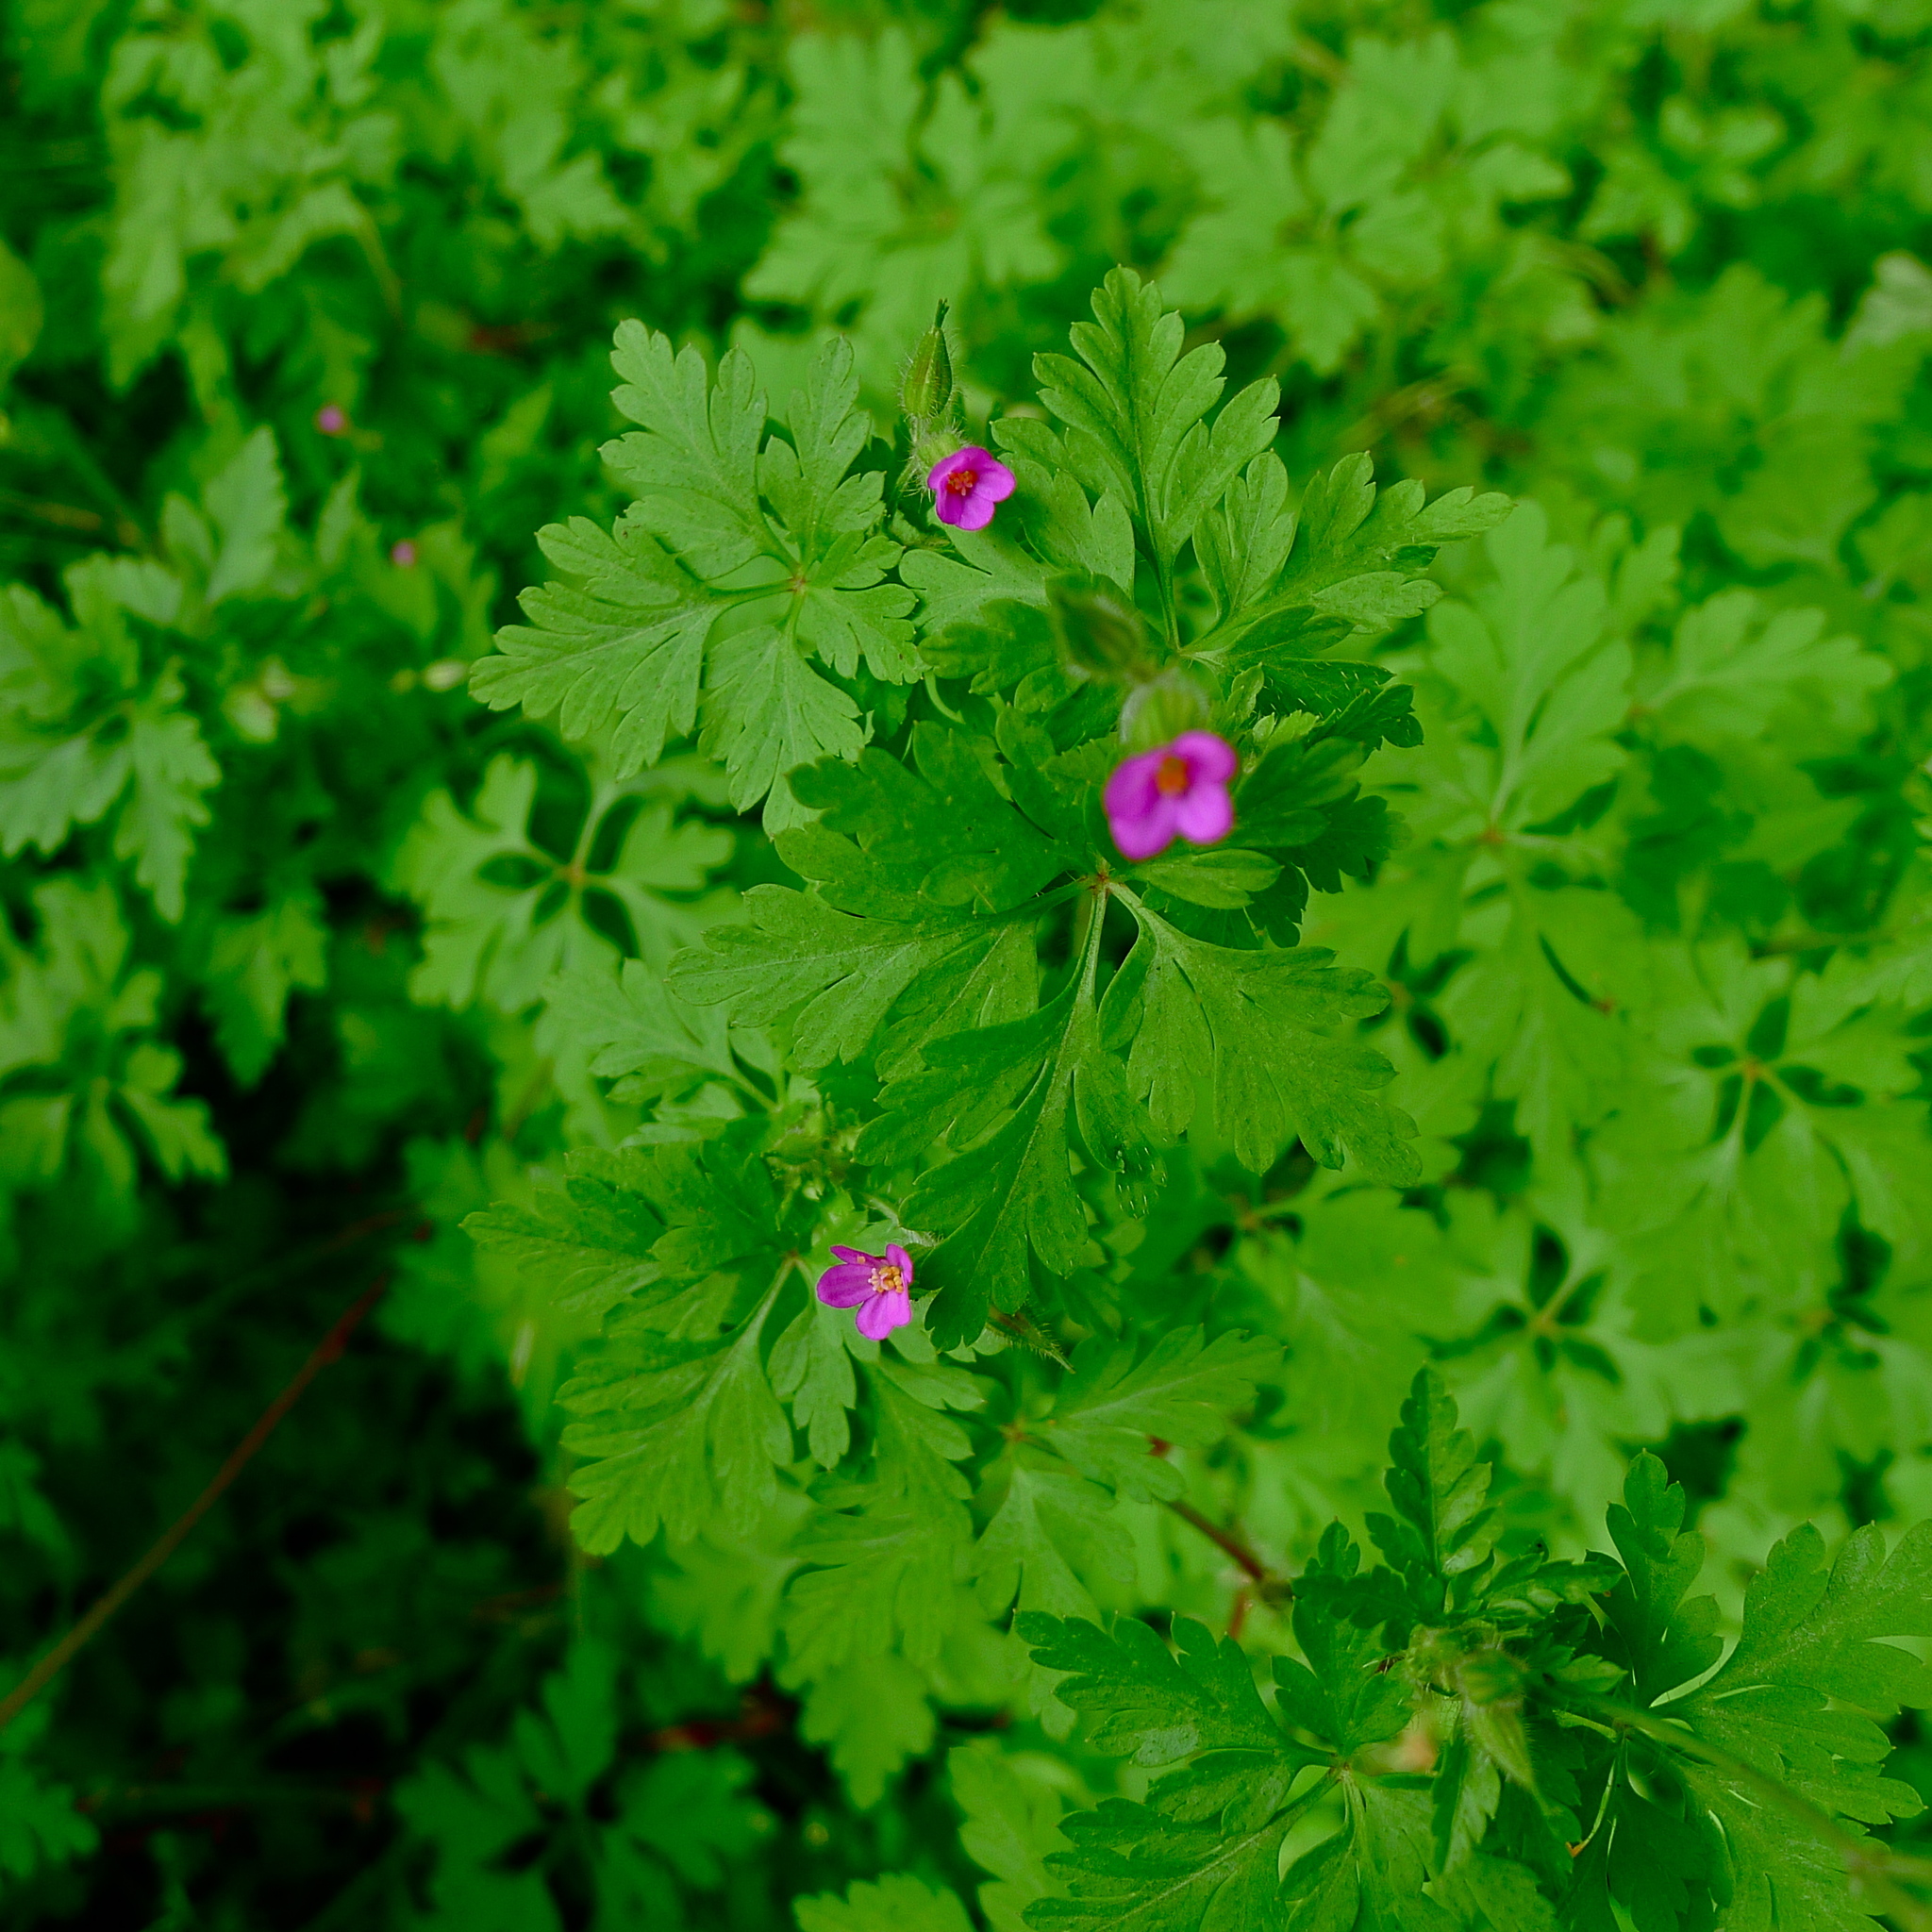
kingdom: Plantae
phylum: Tracheophyta
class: Magnoliopsida
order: Geraniales
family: Geraniaceae
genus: Geranium
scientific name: Geranium purpureum
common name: Little-robin
